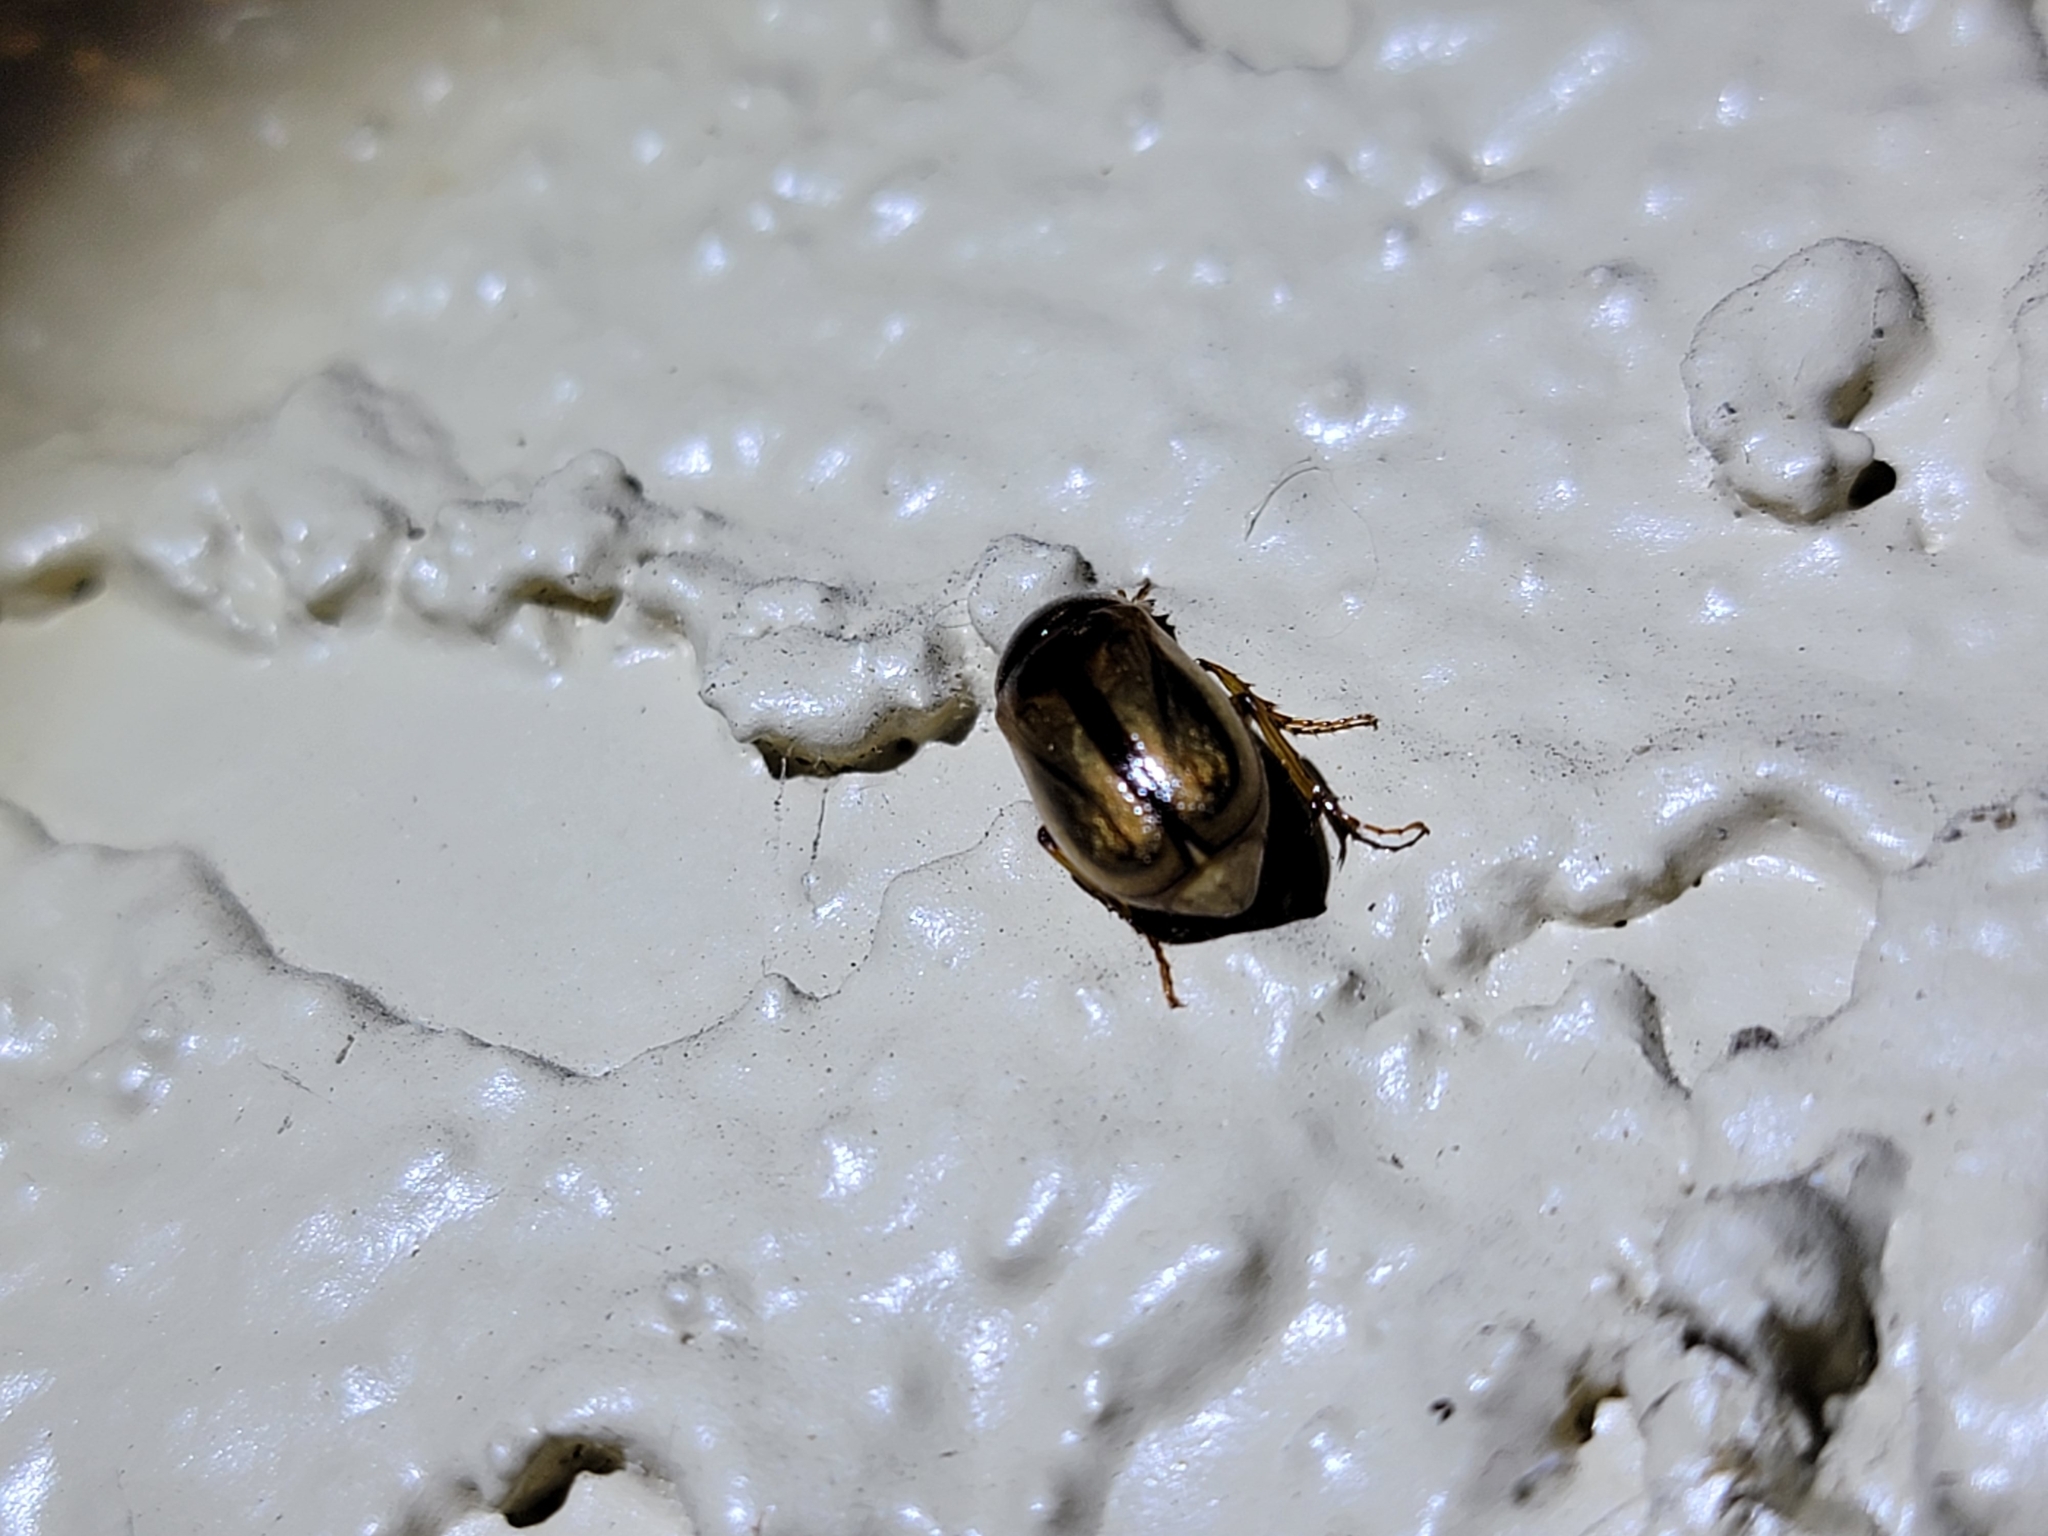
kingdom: Animalia
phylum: Arthropoda
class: Insecta
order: Coleoptera
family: Scarabaeidae
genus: Phyllophaga
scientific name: Phyllophaga bruneri
